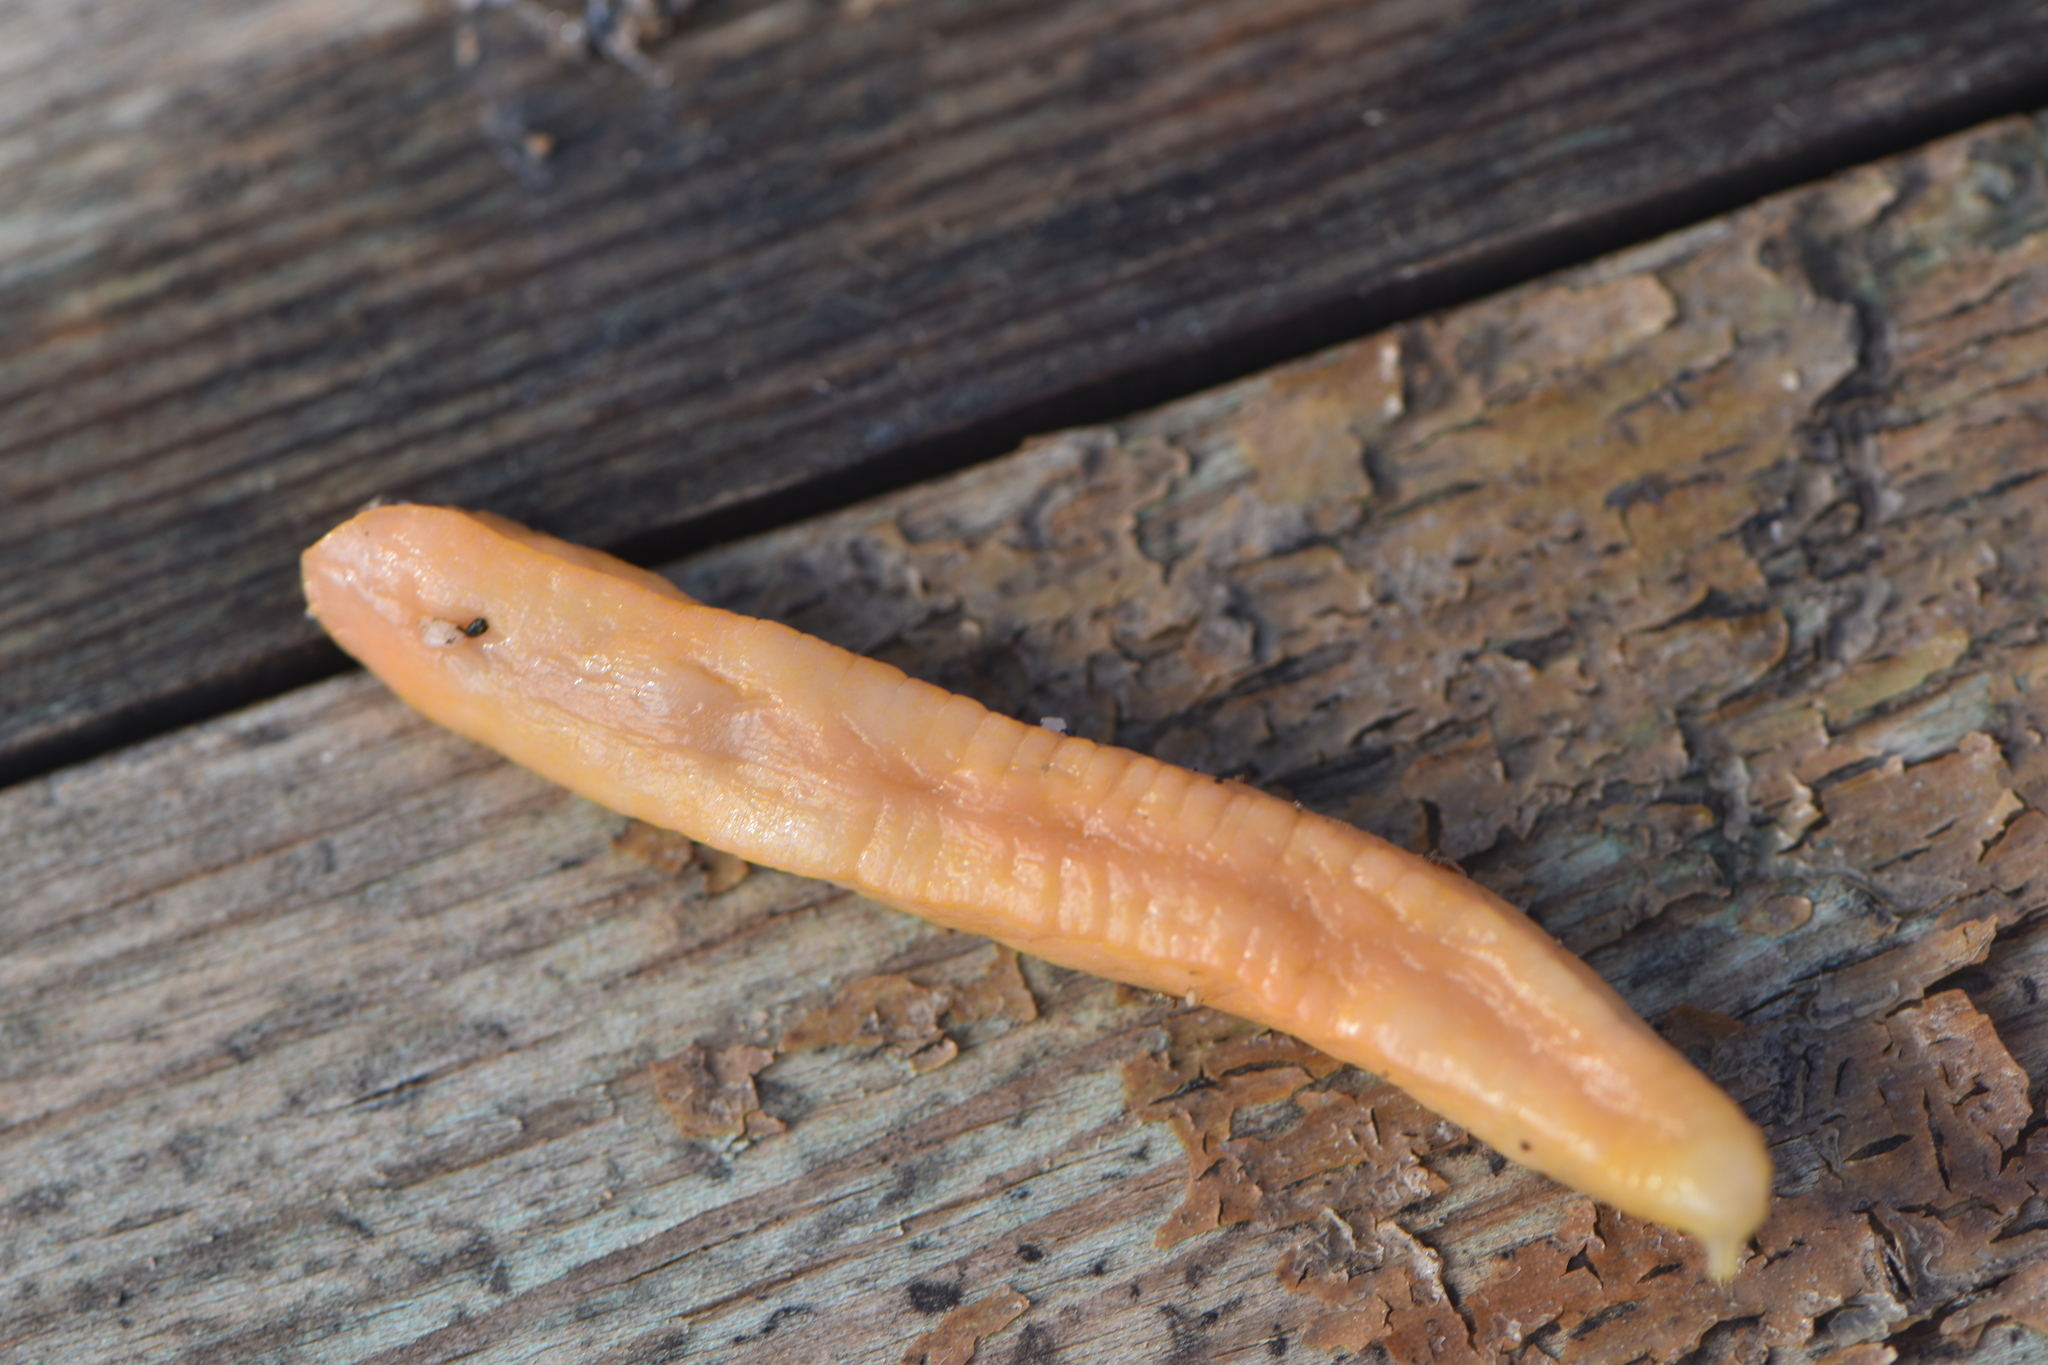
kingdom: Animalia
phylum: Mollusca
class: Gastropoda
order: Stylommatophora
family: Testacellidae
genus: Testacella
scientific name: Testacella haliotidea
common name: Shelled slug
